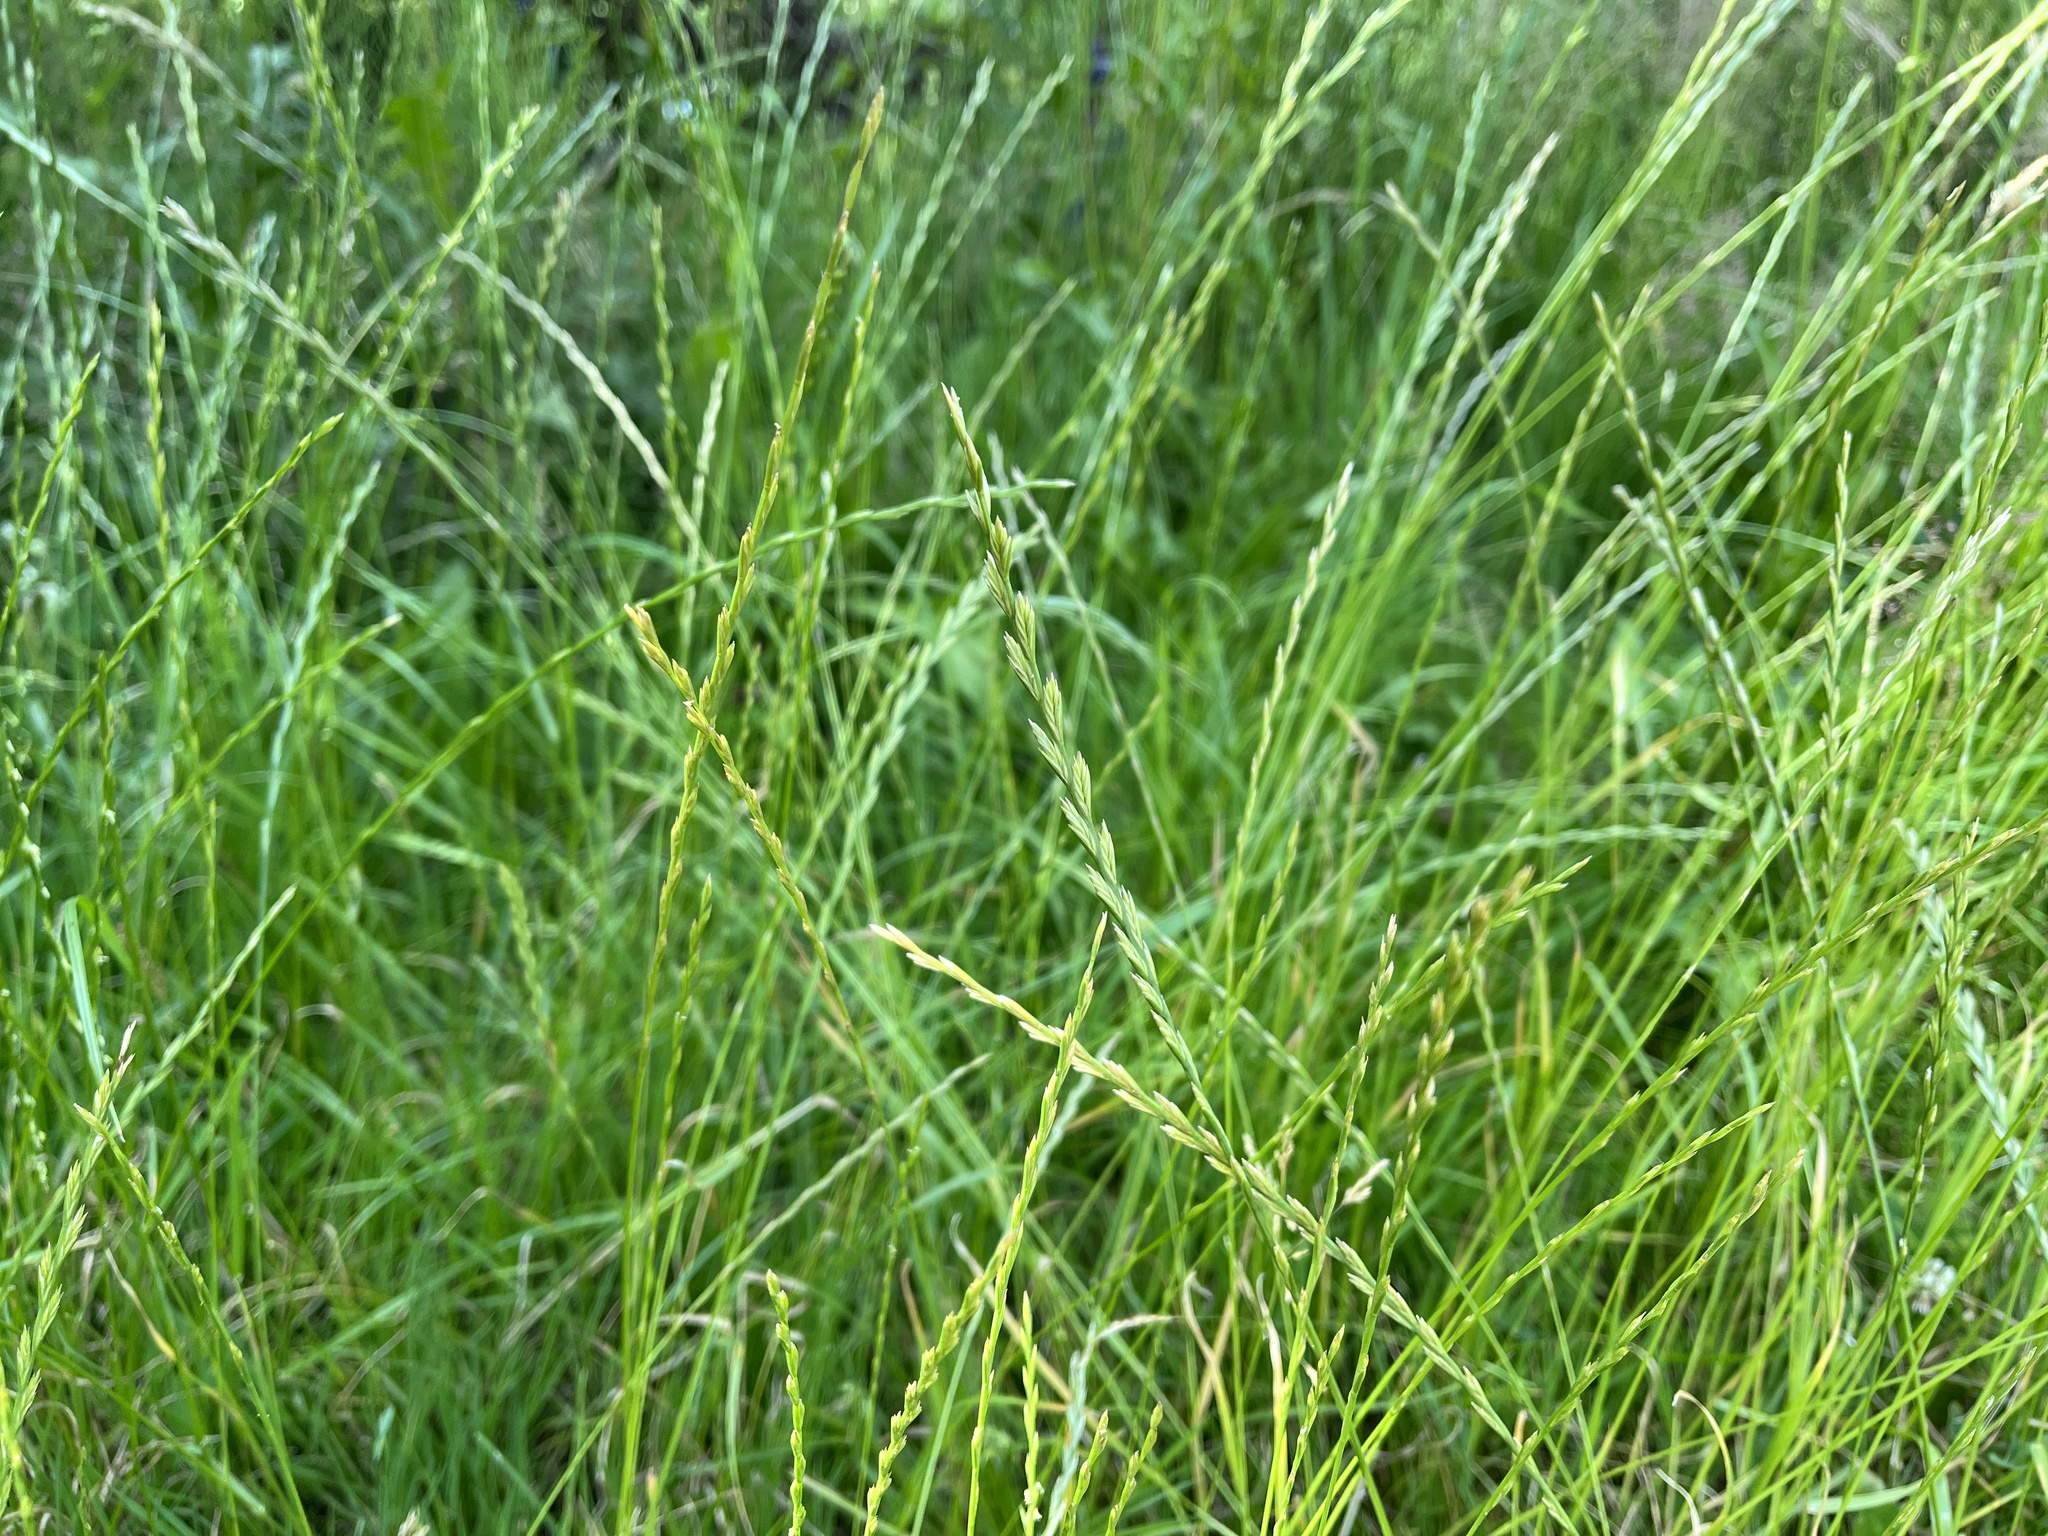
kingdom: Plantae
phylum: Tracheophyta
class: Liliopsida
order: Poales
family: Poaceae
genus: Lolium
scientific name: Lolium perenne
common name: Perennial ryegrass
